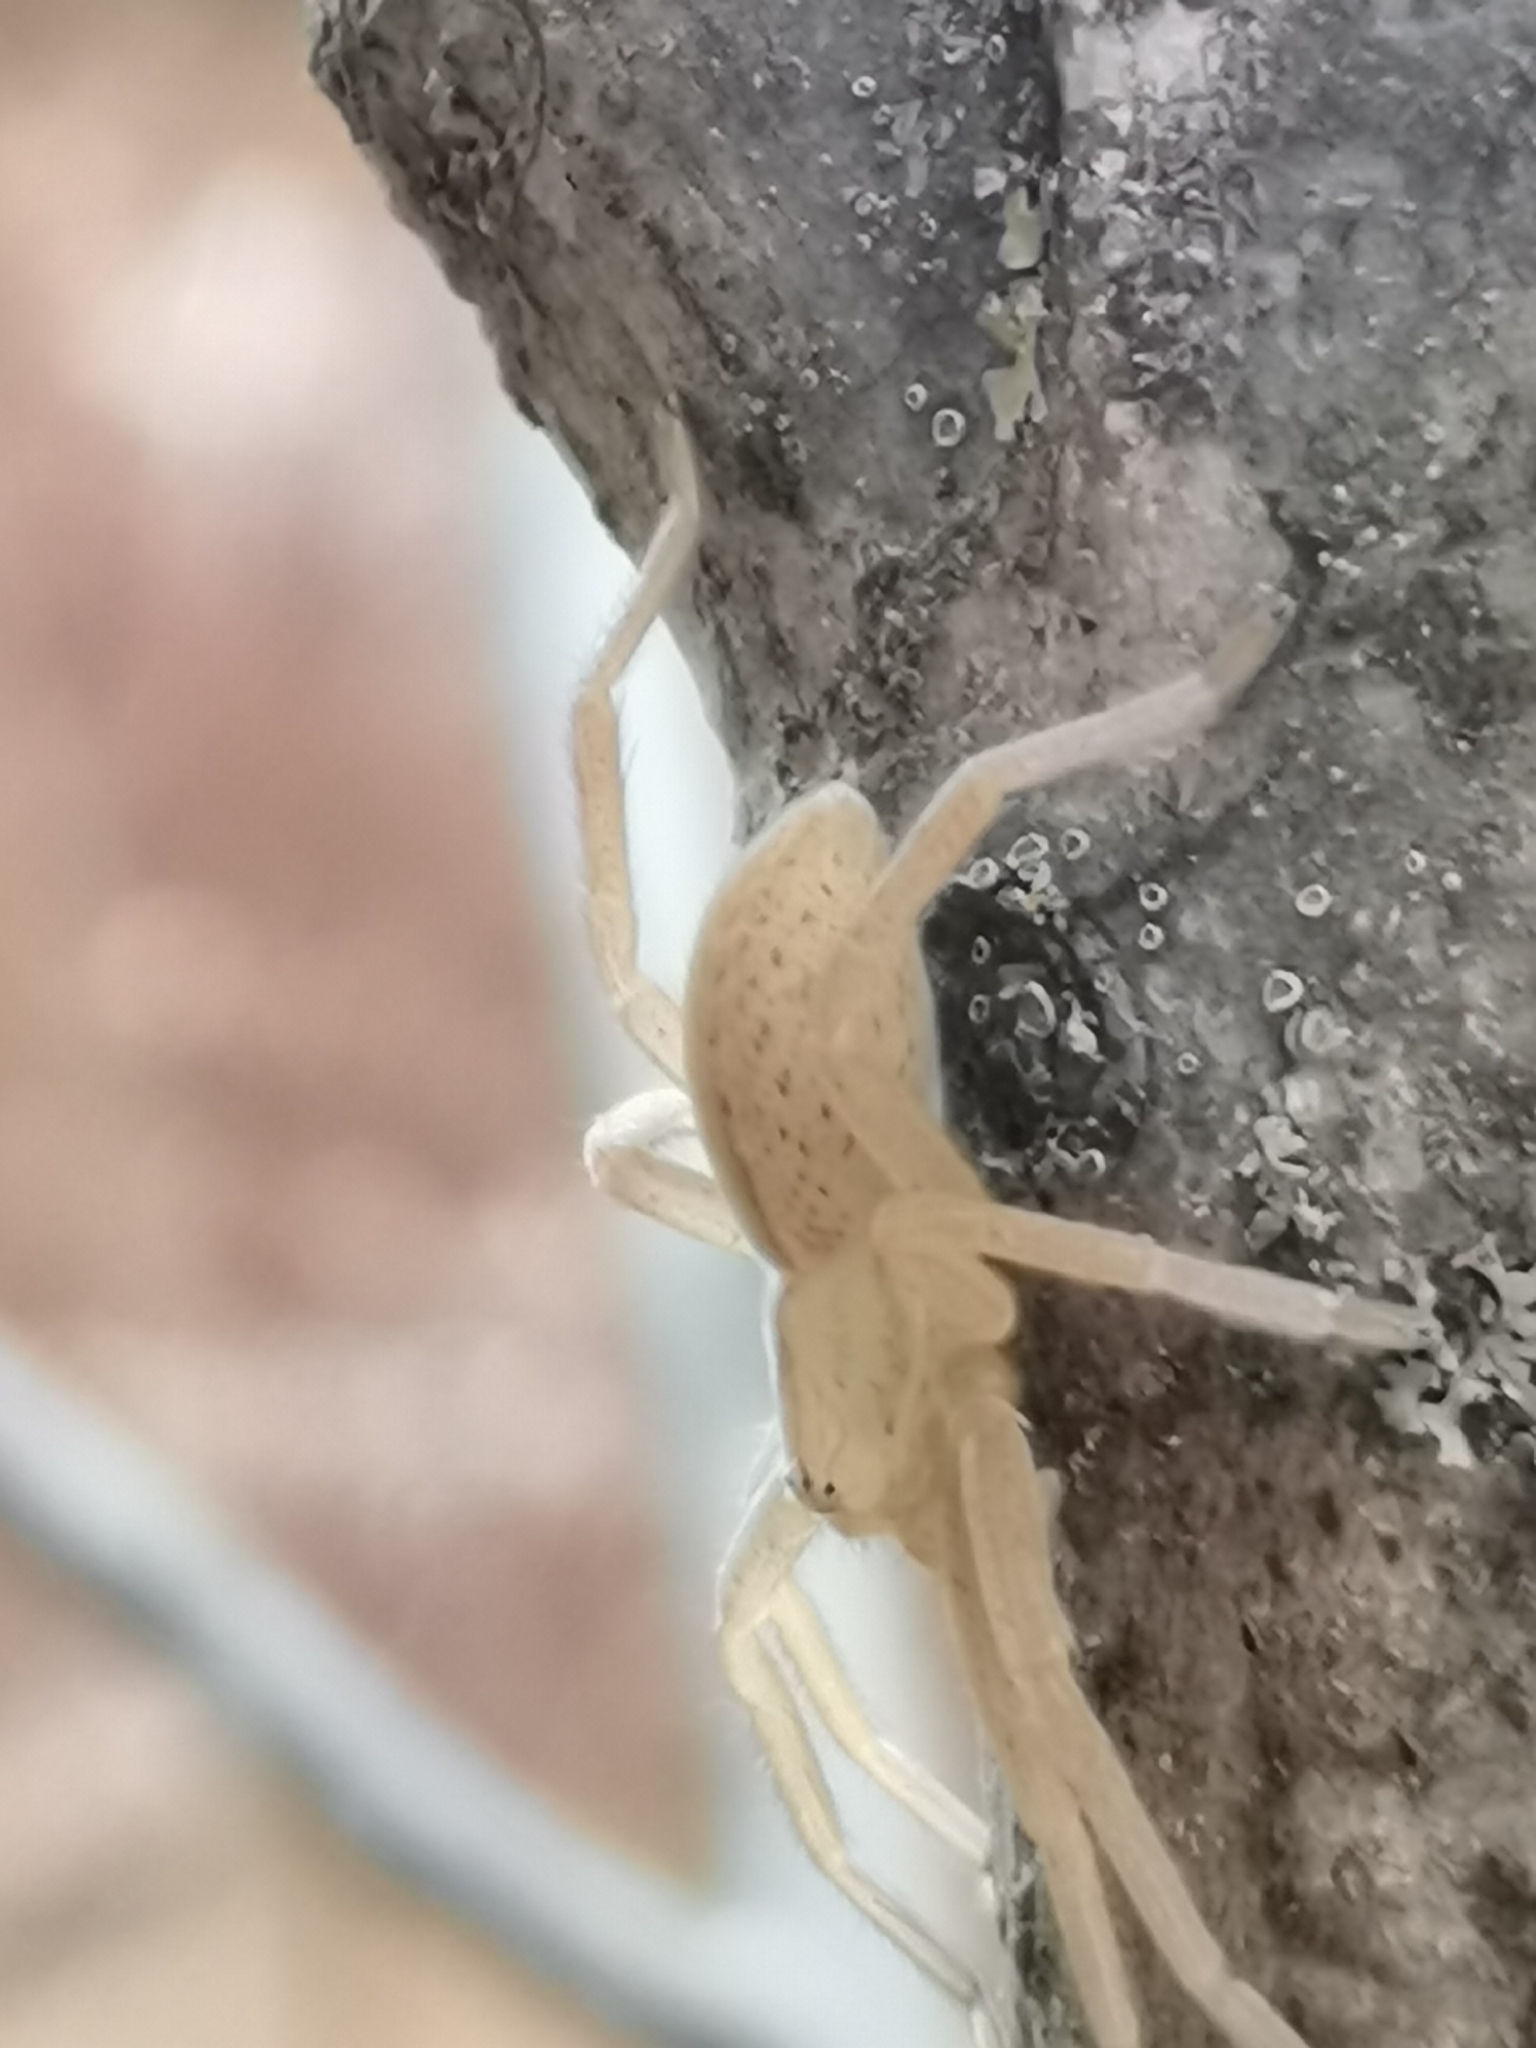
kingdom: Animalia
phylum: Arthropoda
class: Arachnida
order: Araneae
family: Sparassidae
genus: Micrommata
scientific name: Micrommata virescens
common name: Green spider
